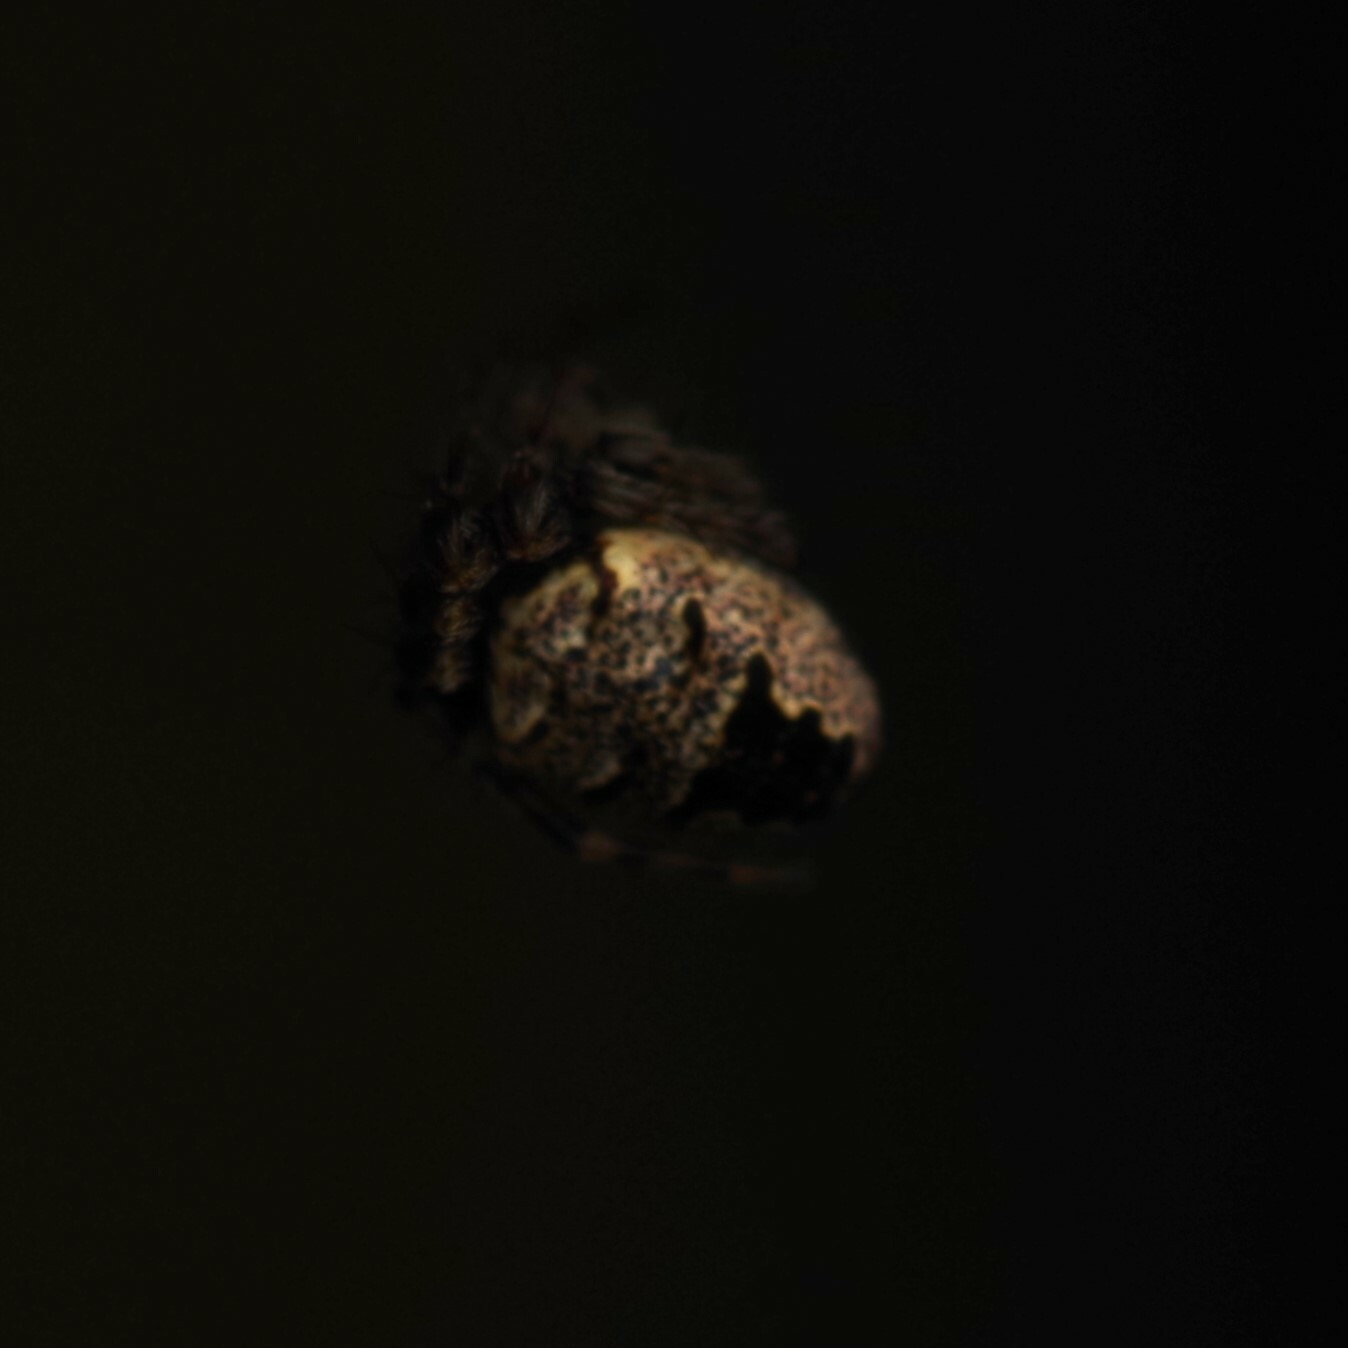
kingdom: Animalia
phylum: Arthropoda
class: Arachnida
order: Araneae
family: Araneidae
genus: Zilla
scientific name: Zilla diodia
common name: Zilla diodia
